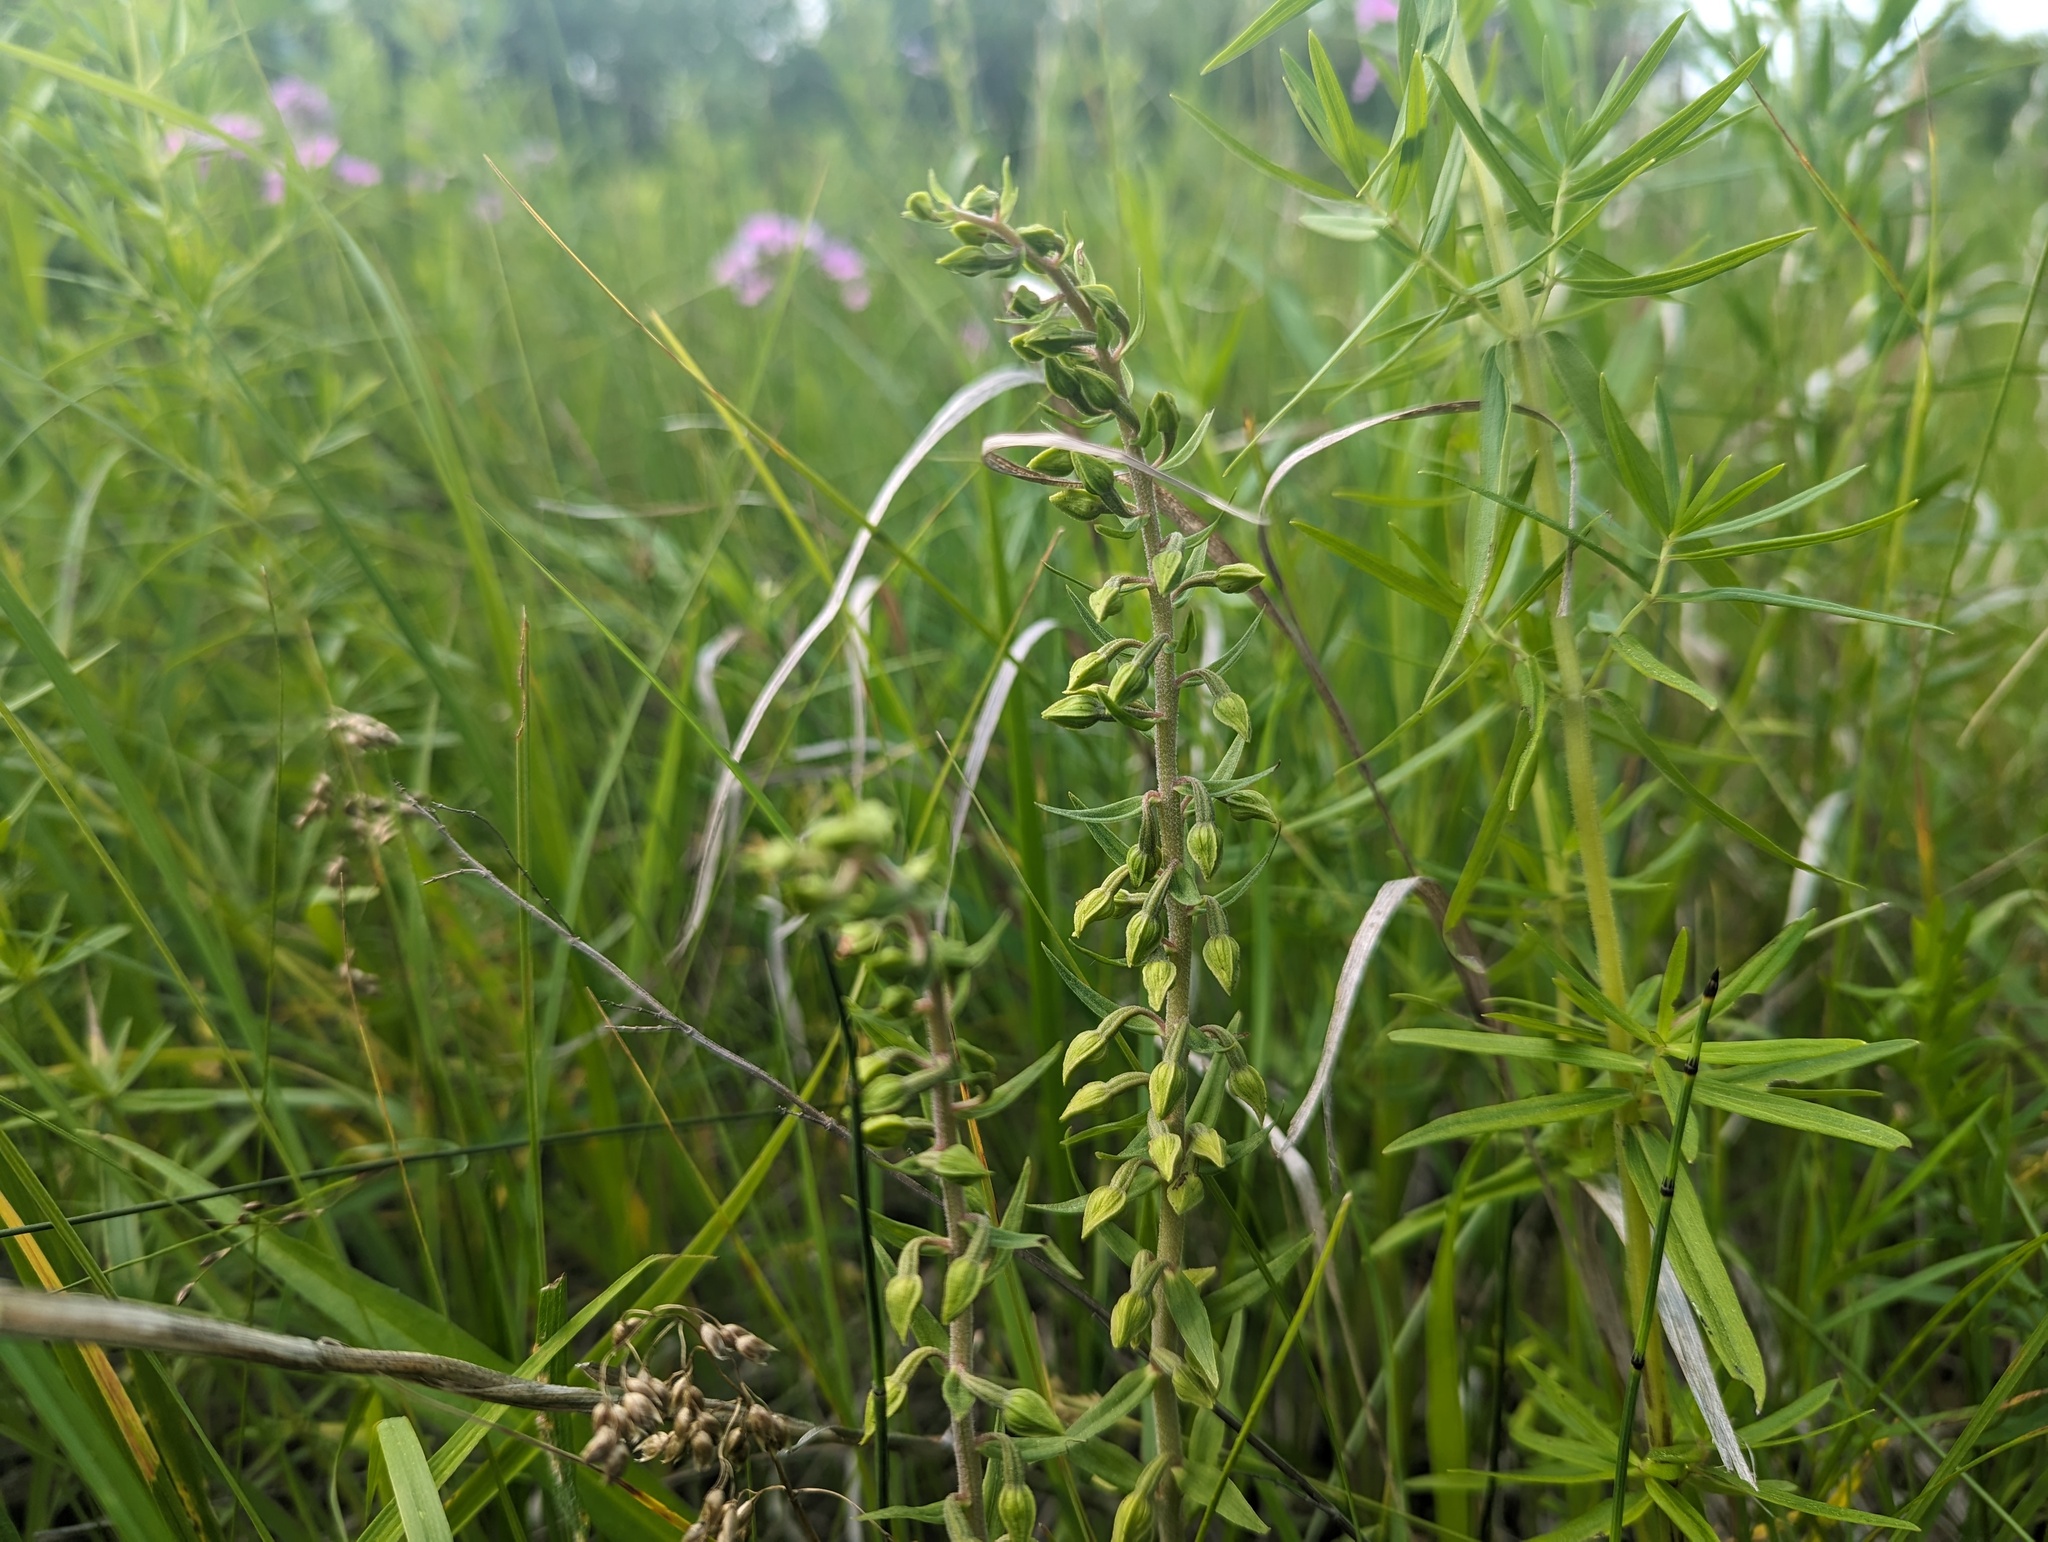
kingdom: Plantae
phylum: Tracheophyta
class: Liliopsida
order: Asparagales
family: Orchidaceae
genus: Epipactis
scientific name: Epipactis helleborine
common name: Broad-leaved helleborine
